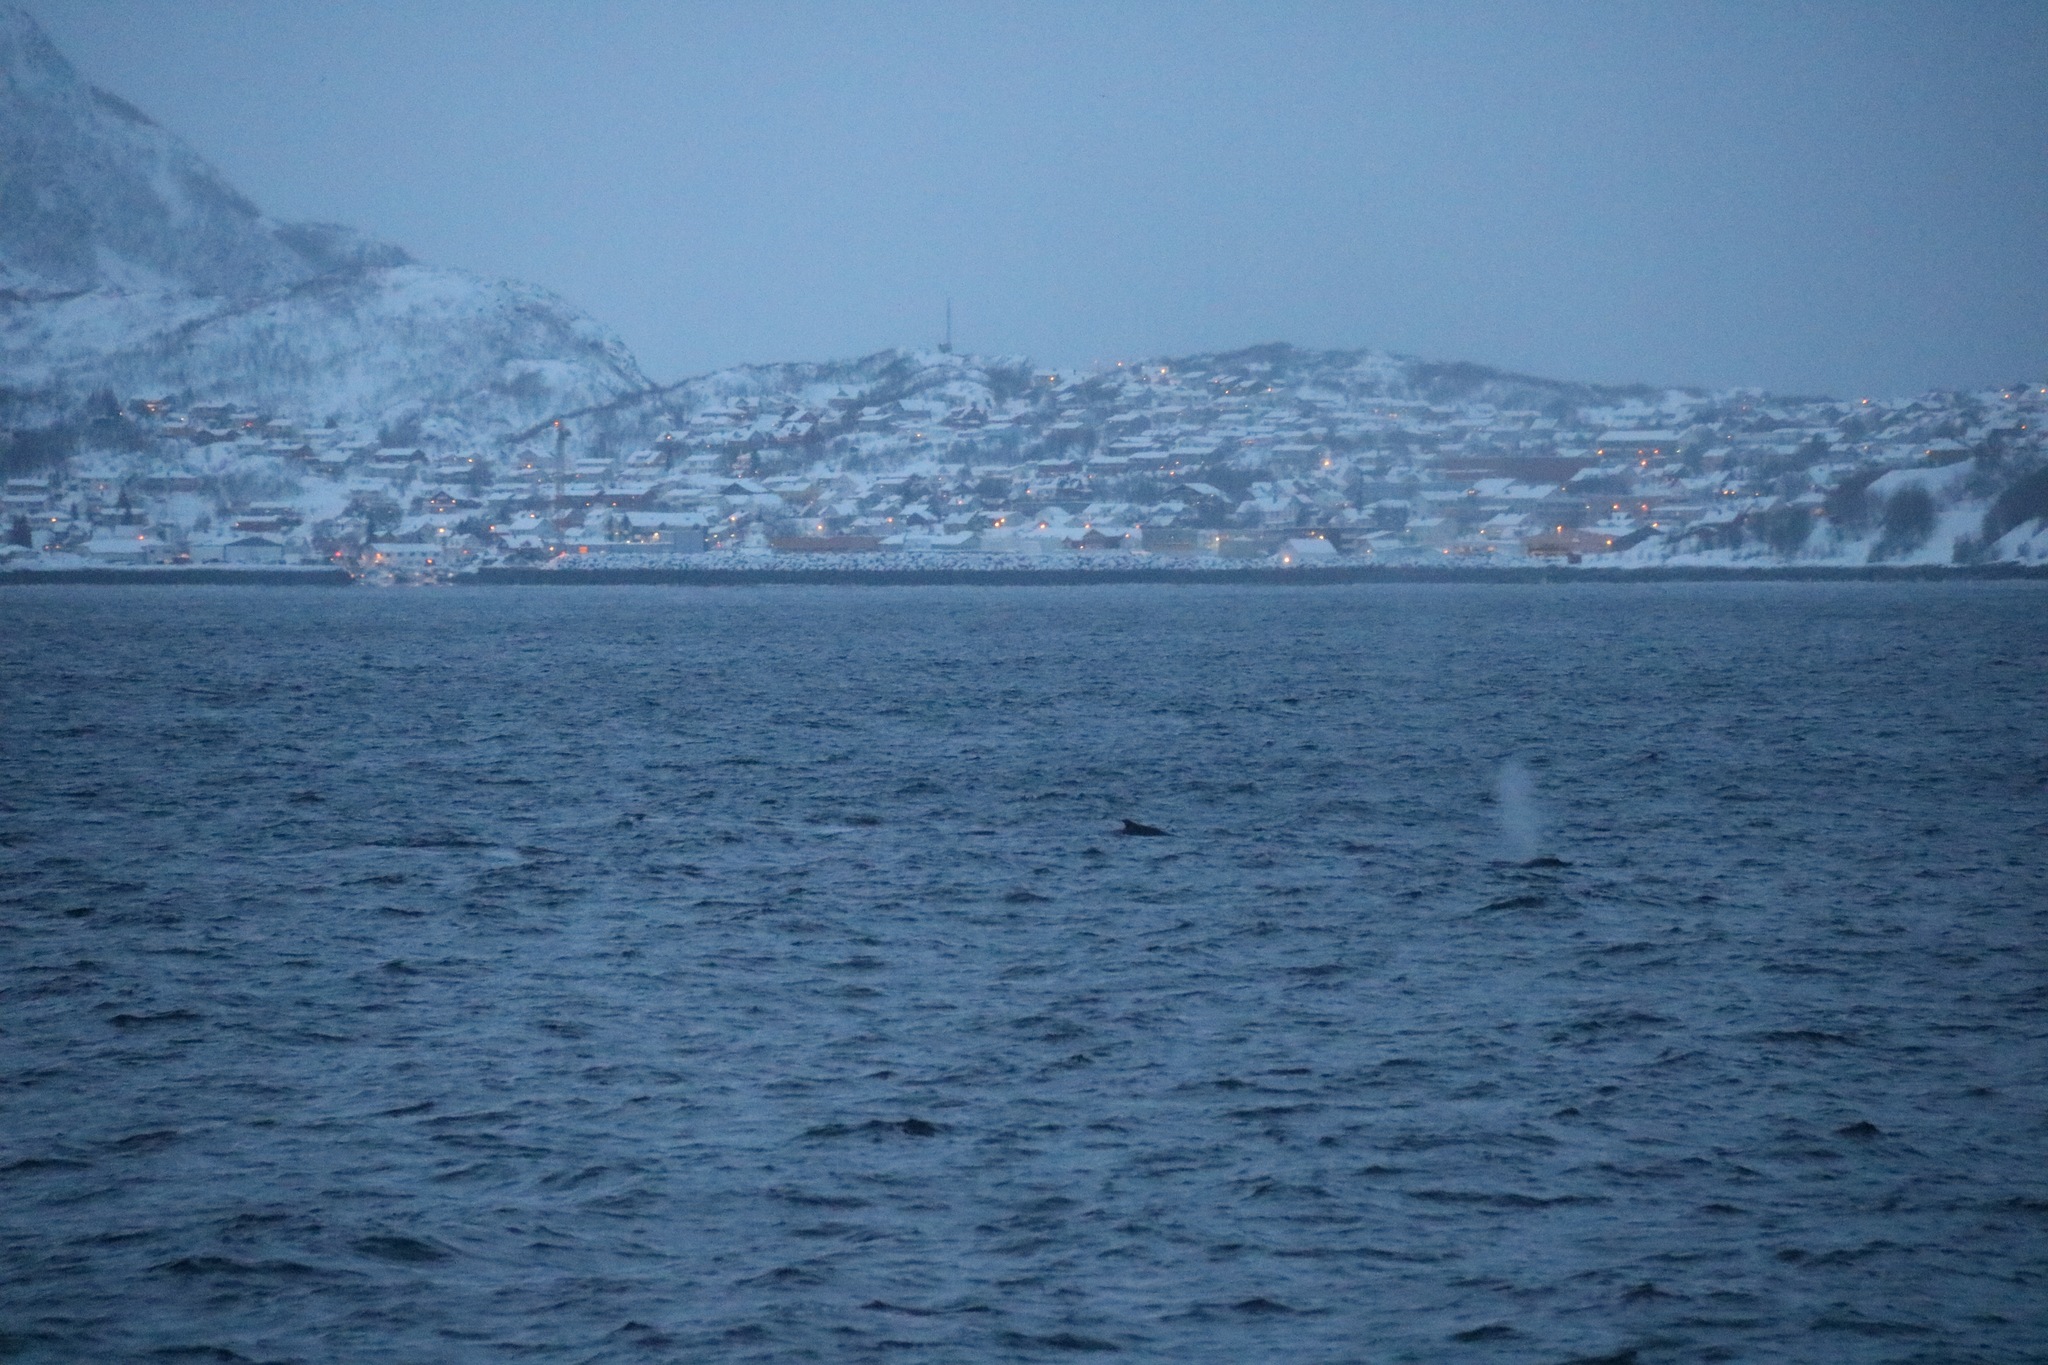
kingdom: Animalia
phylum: Chordata
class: Mammalia
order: Cetacea
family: Balaenopteridae
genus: Megaptera
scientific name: Megaptera novaeangliae
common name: Humpback whale
